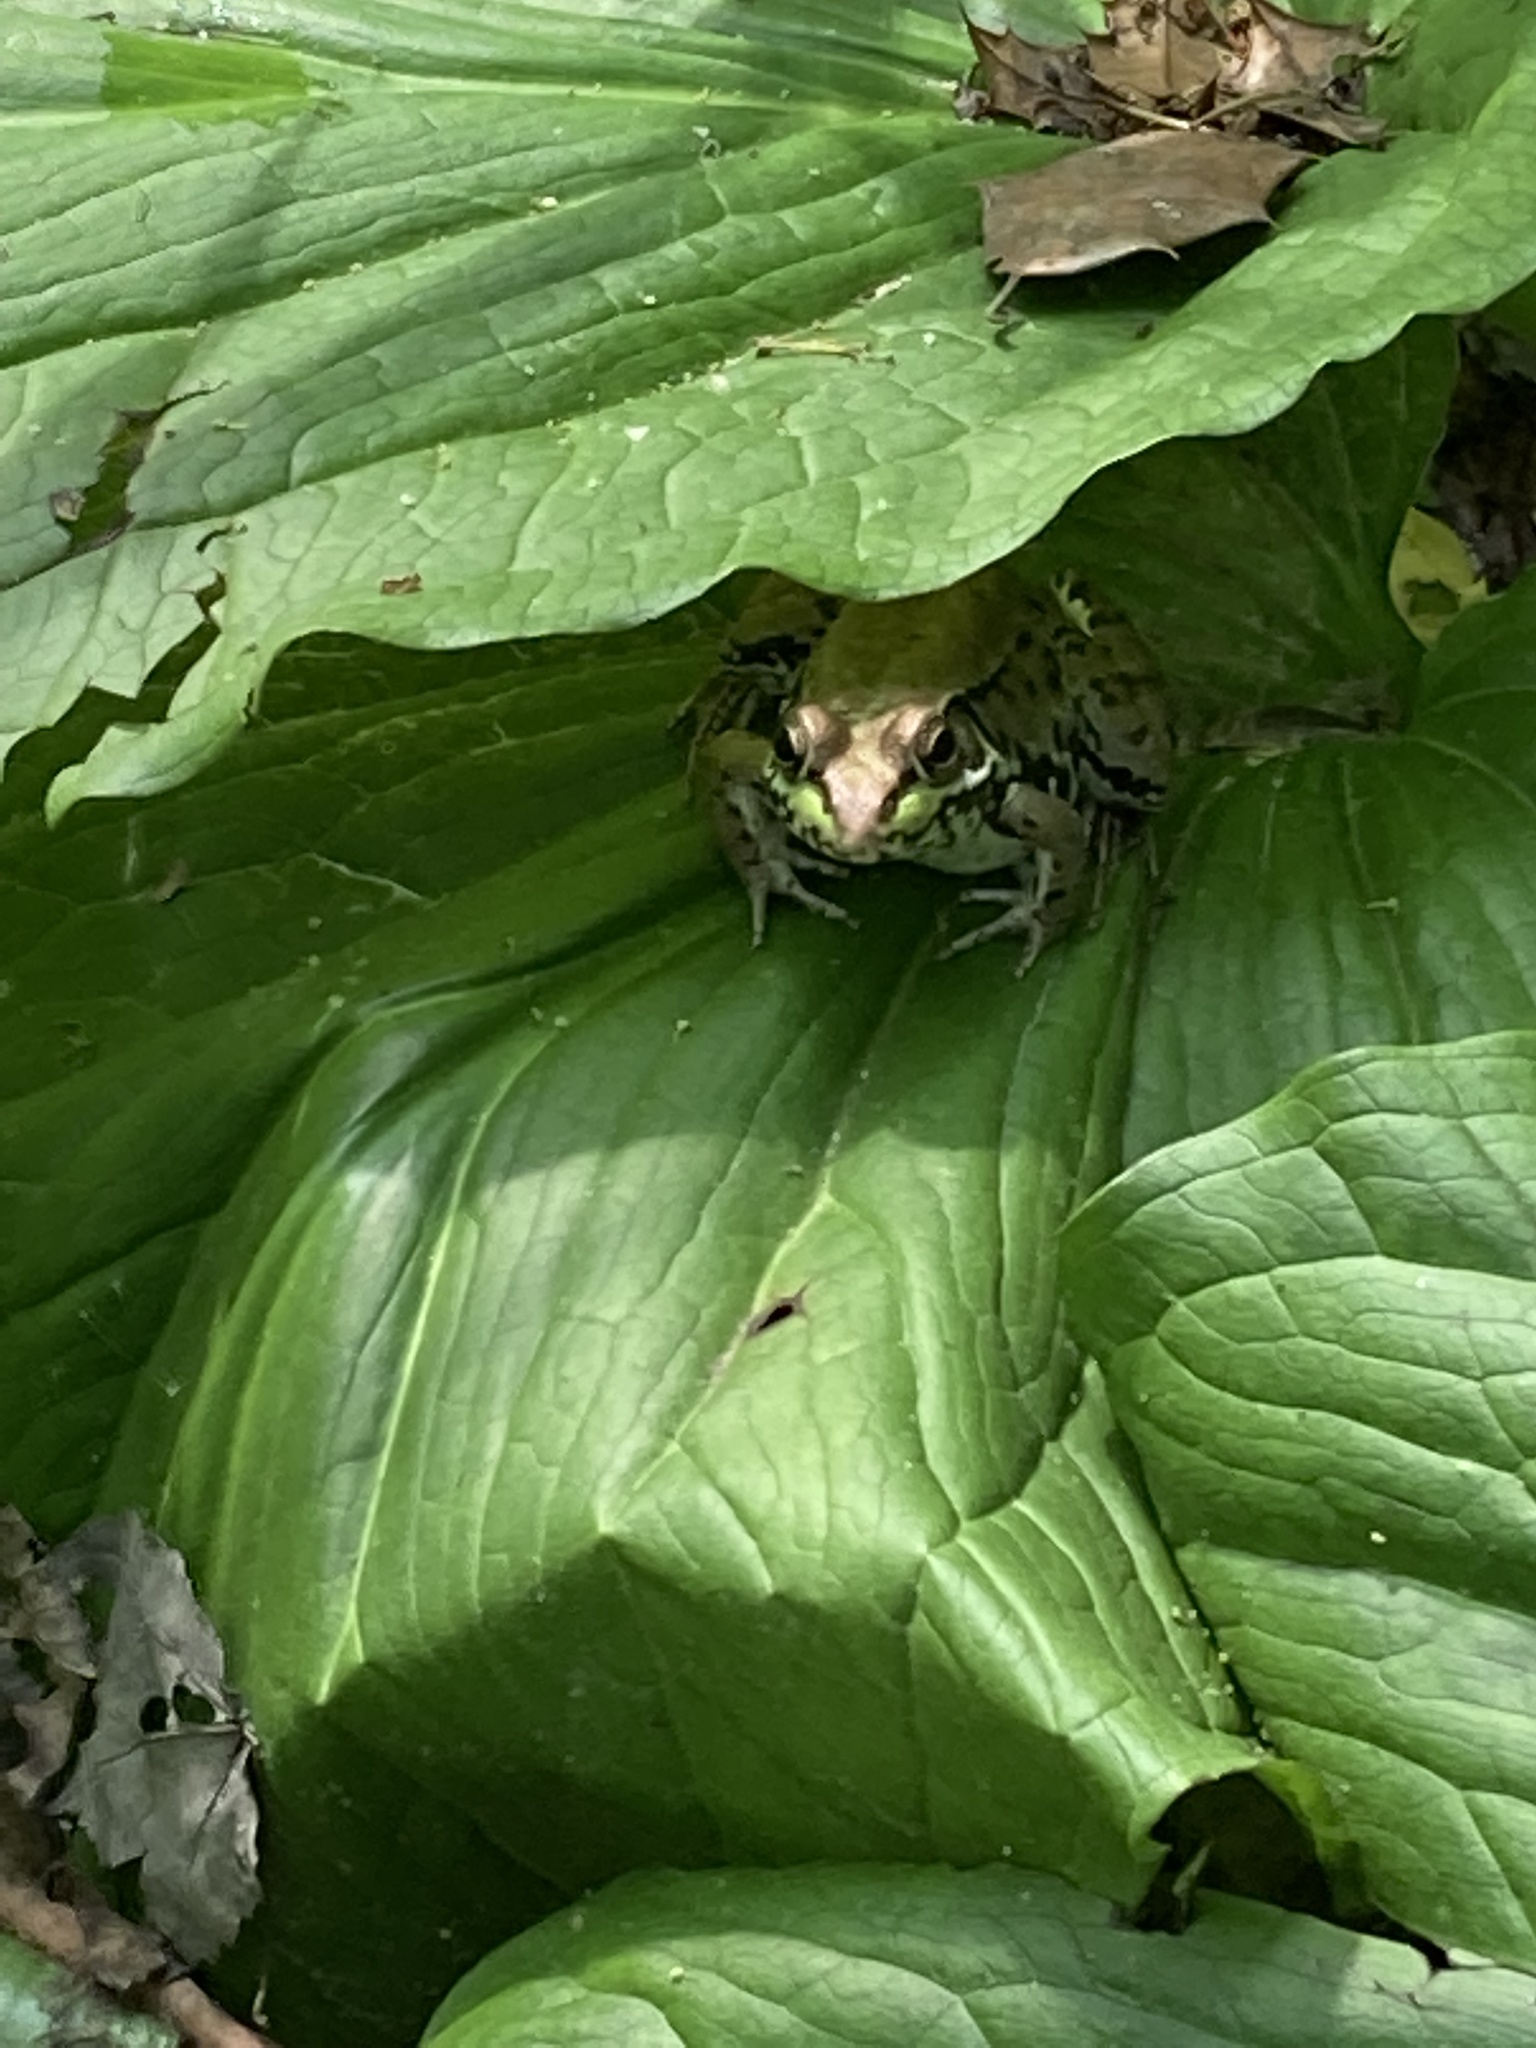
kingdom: Animalia
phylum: Chordata
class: Amphibia
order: Anura
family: Ranidae
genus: Lithobates
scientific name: Lithobates clamitans
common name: Green frog
